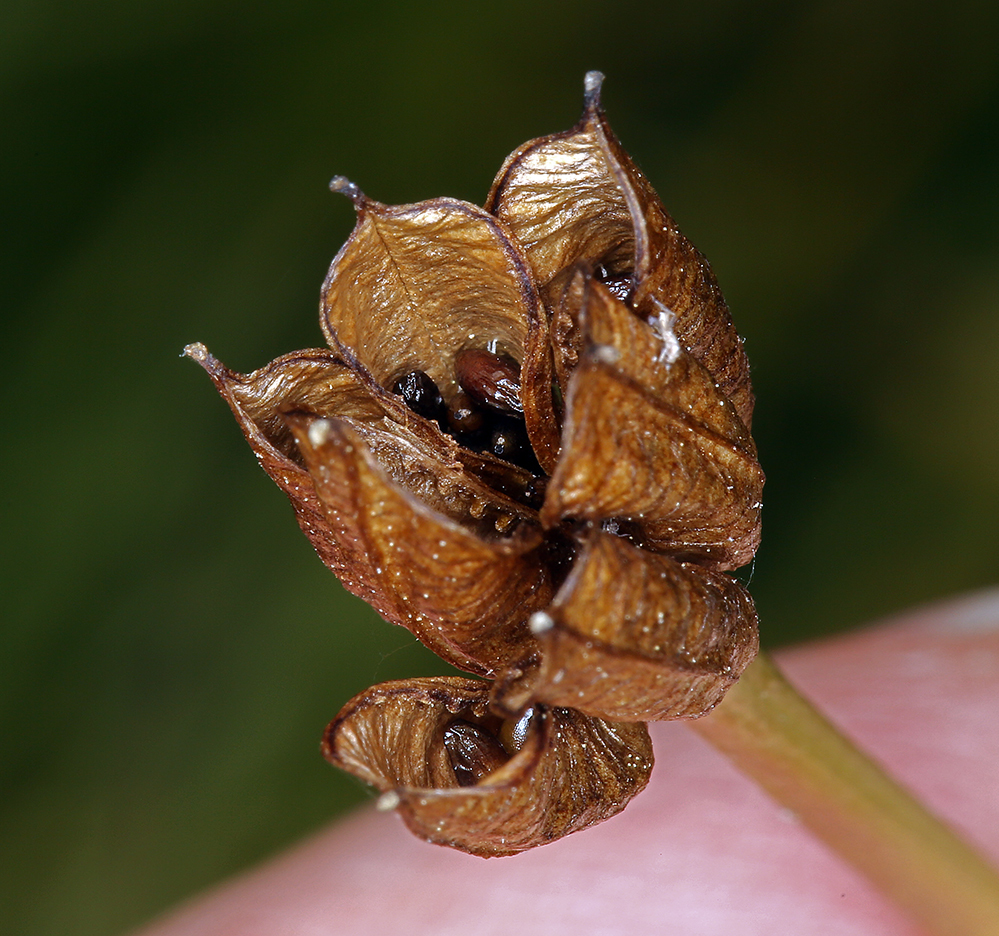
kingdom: Plantae
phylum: Tracheophyta
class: Magnoliopsida
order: Ranunculales
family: Ranunculaceae
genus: Caltha
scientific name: Caltha leptosepala
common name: Elkslip
